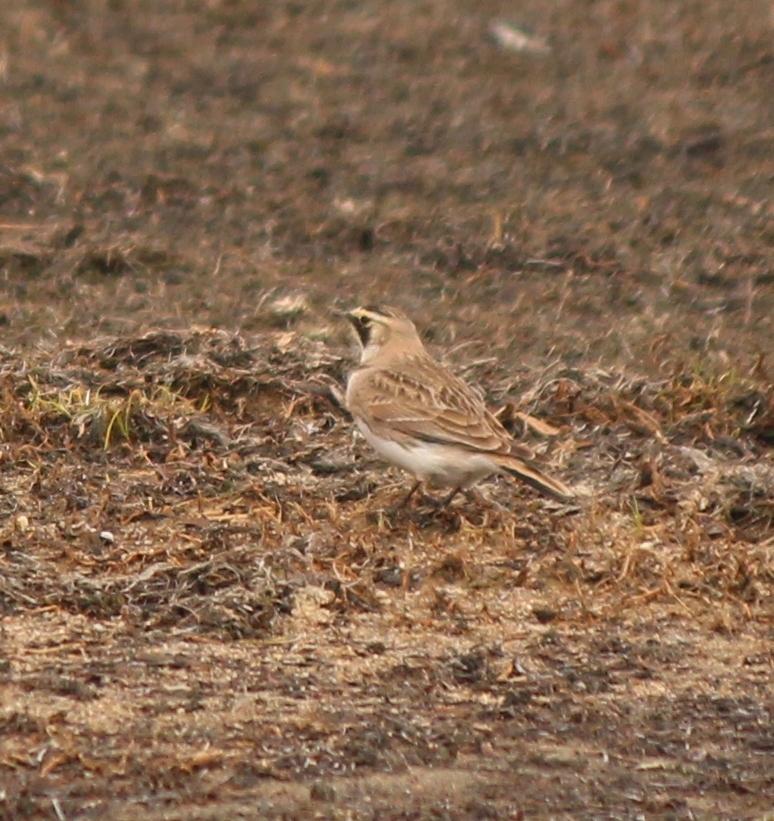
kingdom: Animalia
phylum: Chordata
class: Aves
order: Passeriformes
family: Alaudidae
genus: Eremophila
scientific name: Eremophila alpestris
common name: Horned lark
